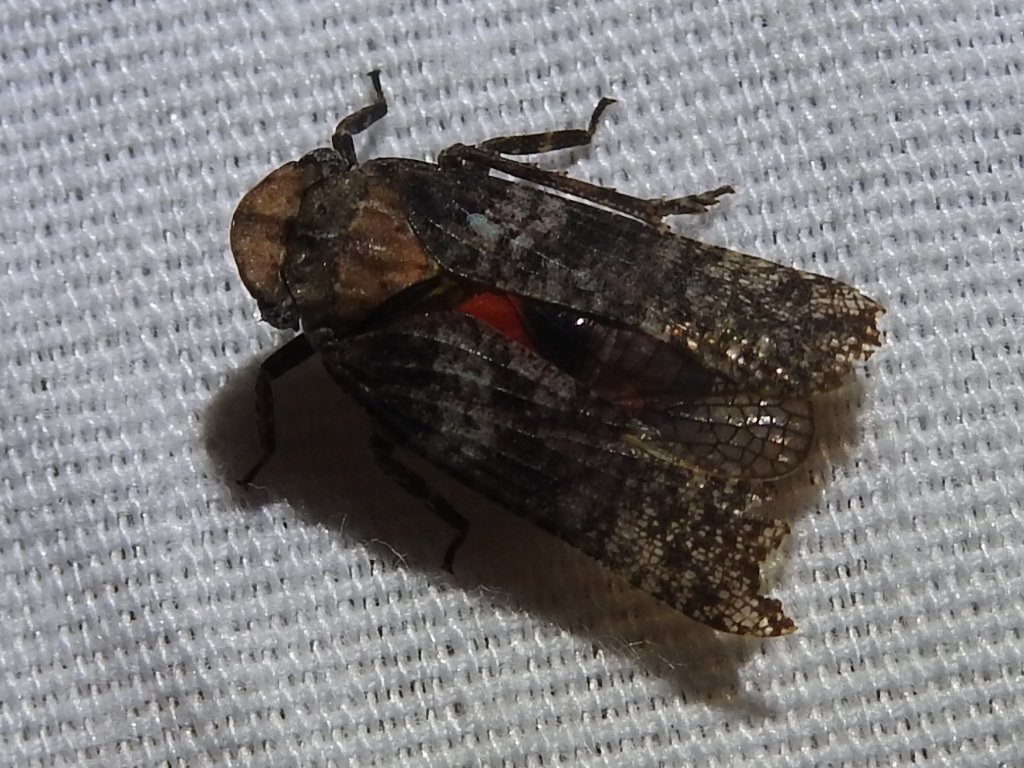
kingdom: Animalia
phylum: Arthropoda
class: Insecta
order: Hemiptera
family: Fulgoridae
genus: Cyrpoptus
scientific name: Cyrpoptus vanduzeei
